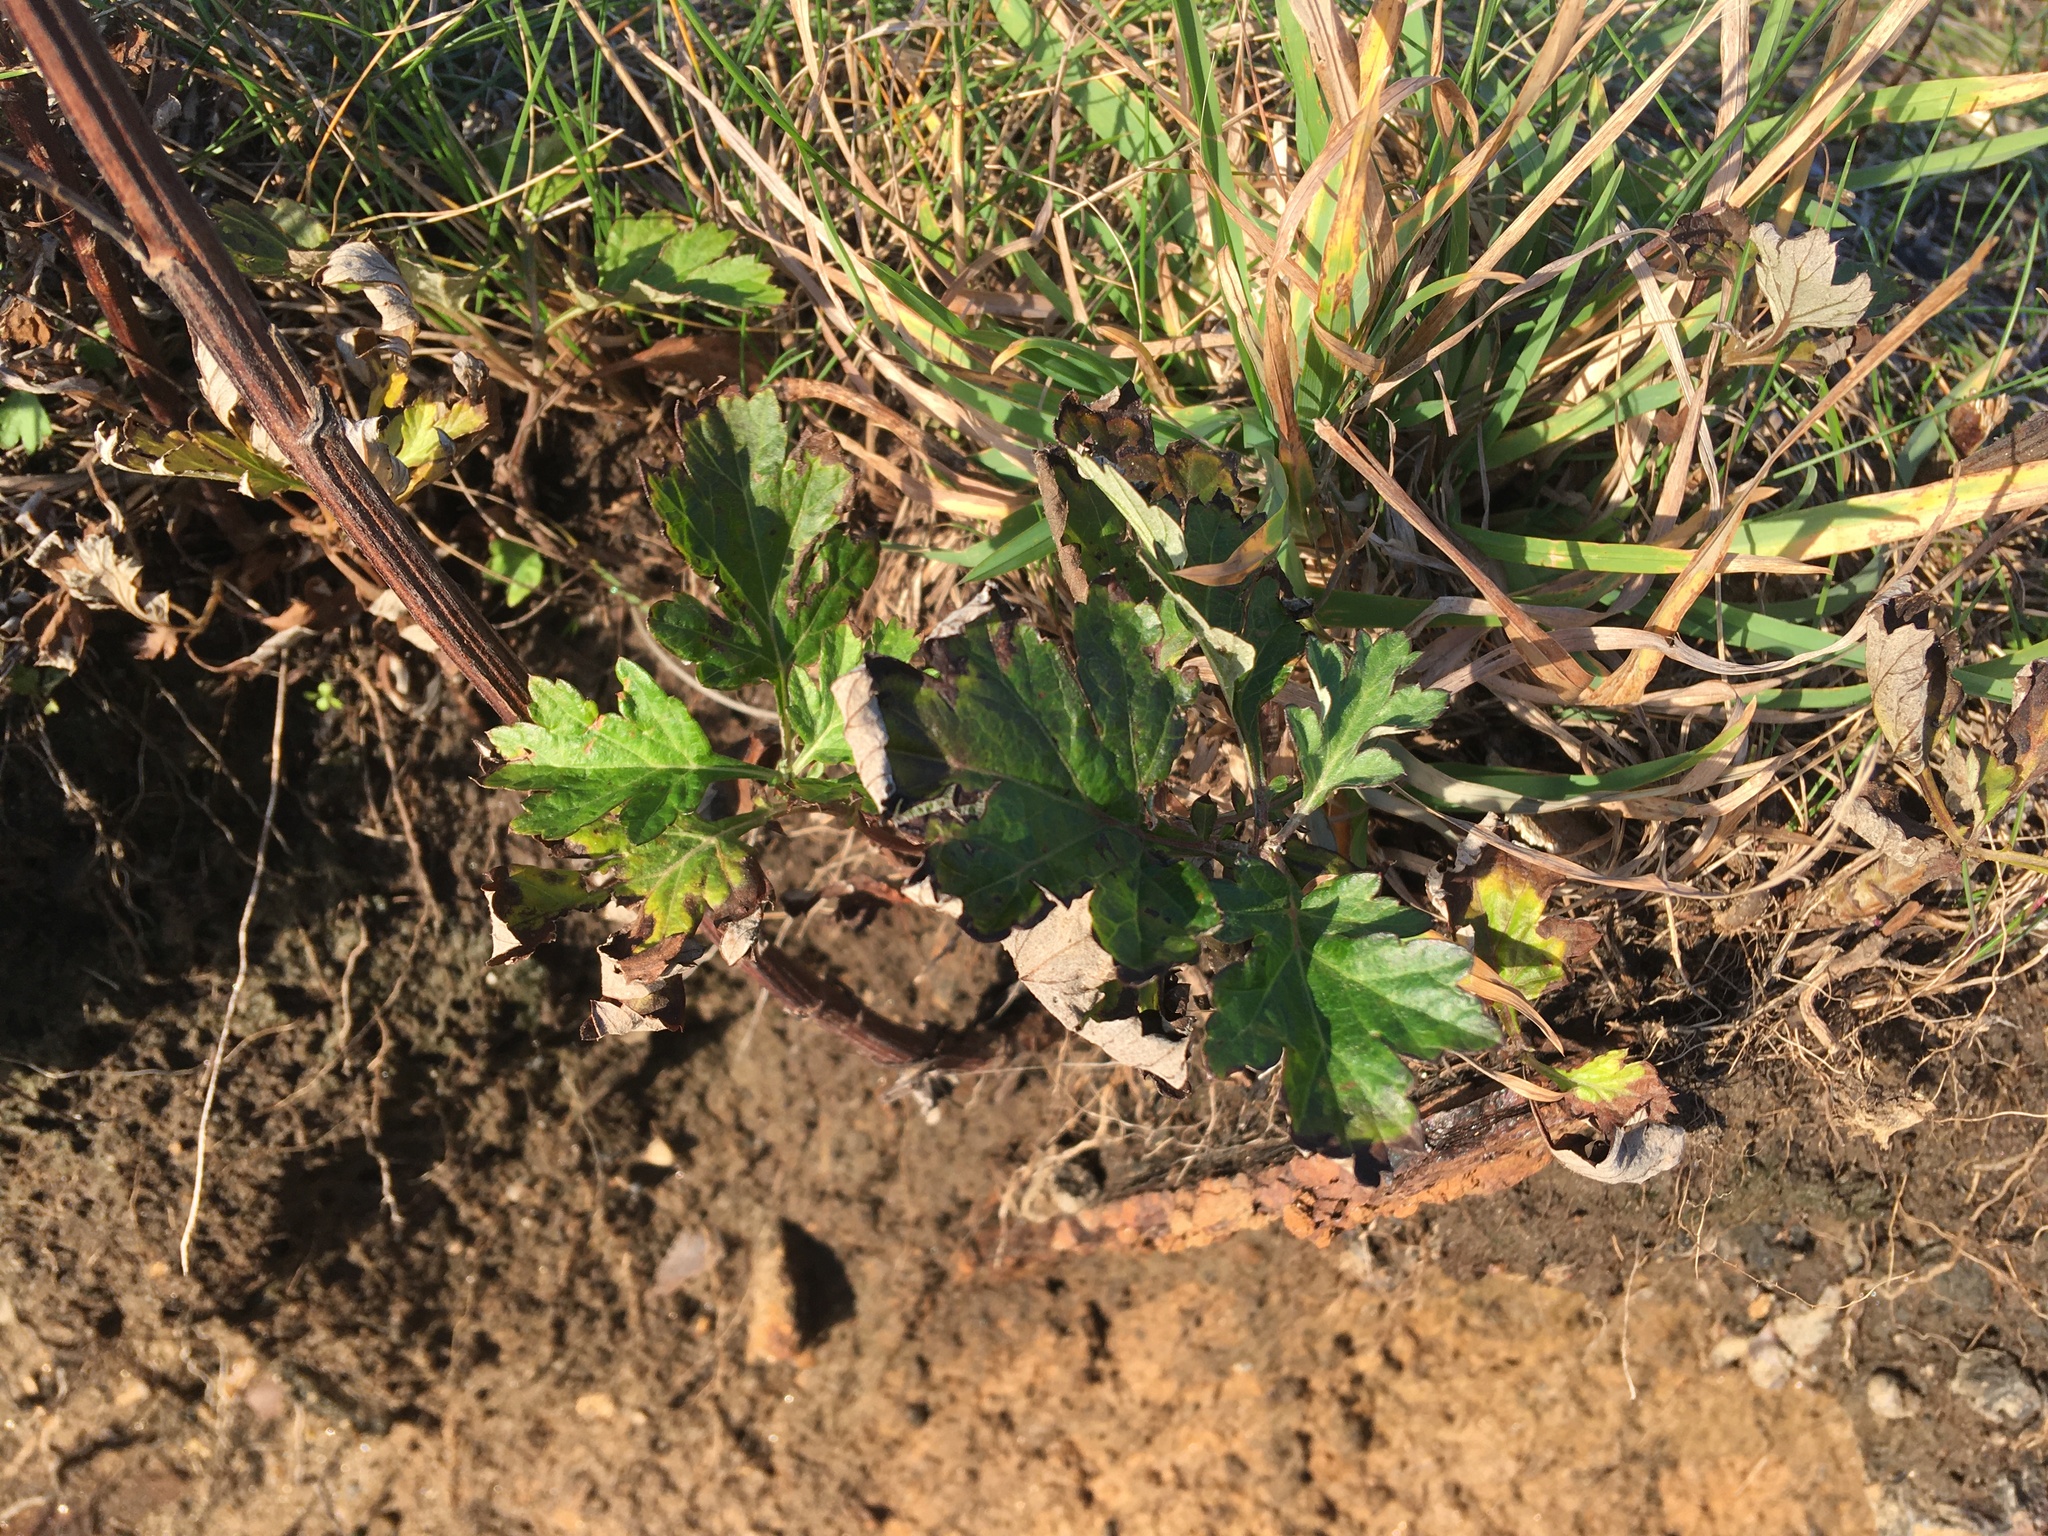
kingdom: Plantae
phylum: Tracheophyta
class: Magnoliopsida
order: Asterales
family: Asteraceae
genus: Artemisia
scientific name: Artemisia vulgaris
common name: Mugwort
